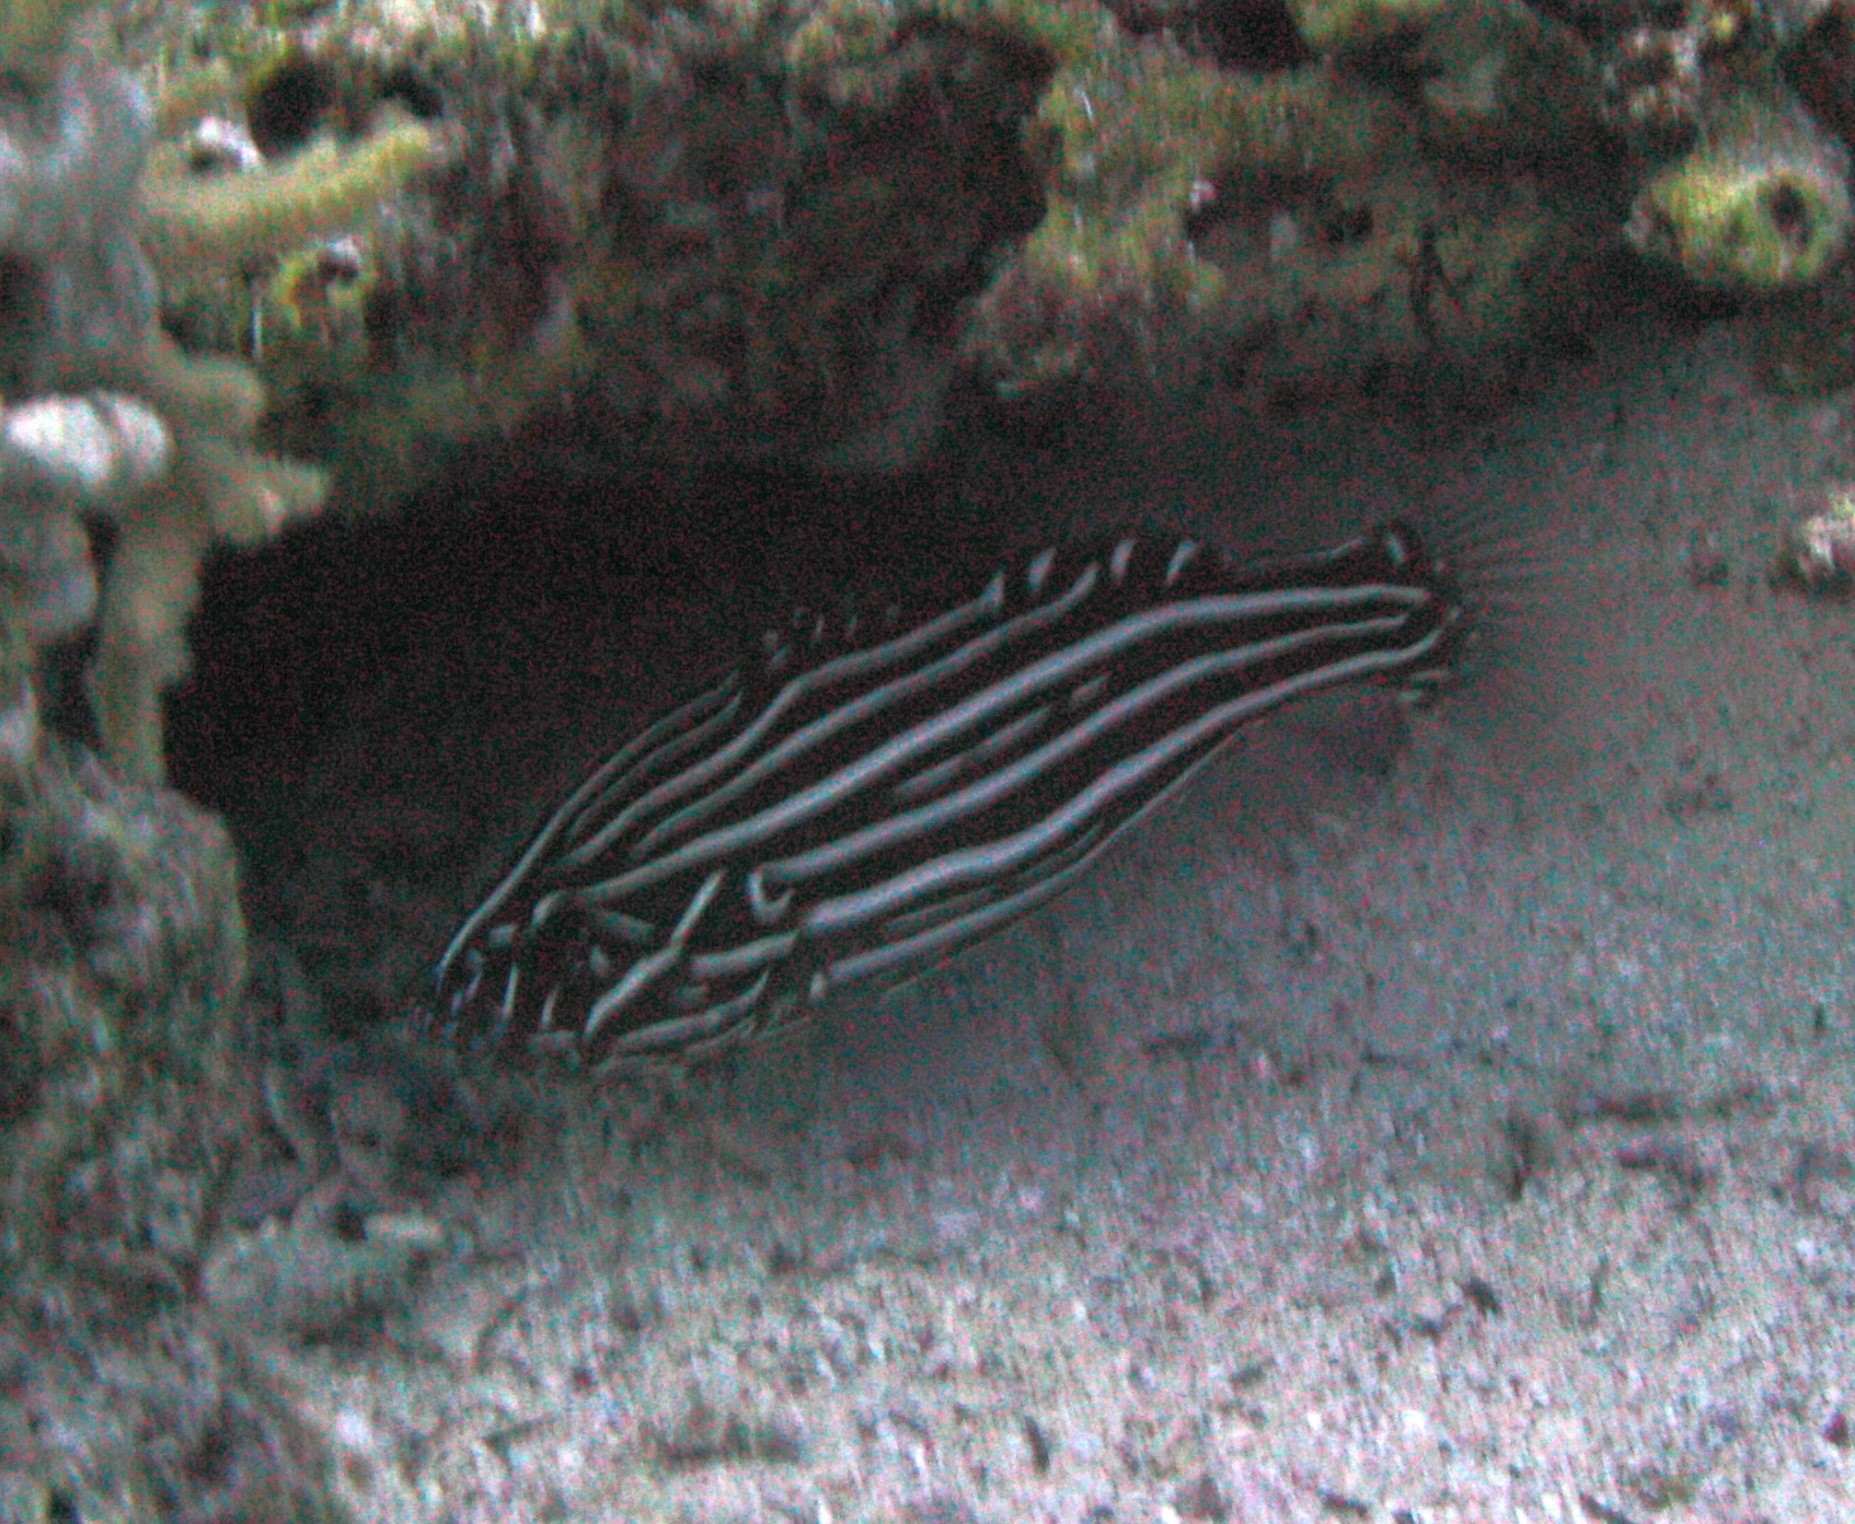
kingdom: Animalia
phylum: Chordata
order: Perciformes
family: Serranidae
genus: Grammistes
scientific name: Grammistes sexlineatus
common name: Sixline soapfish
